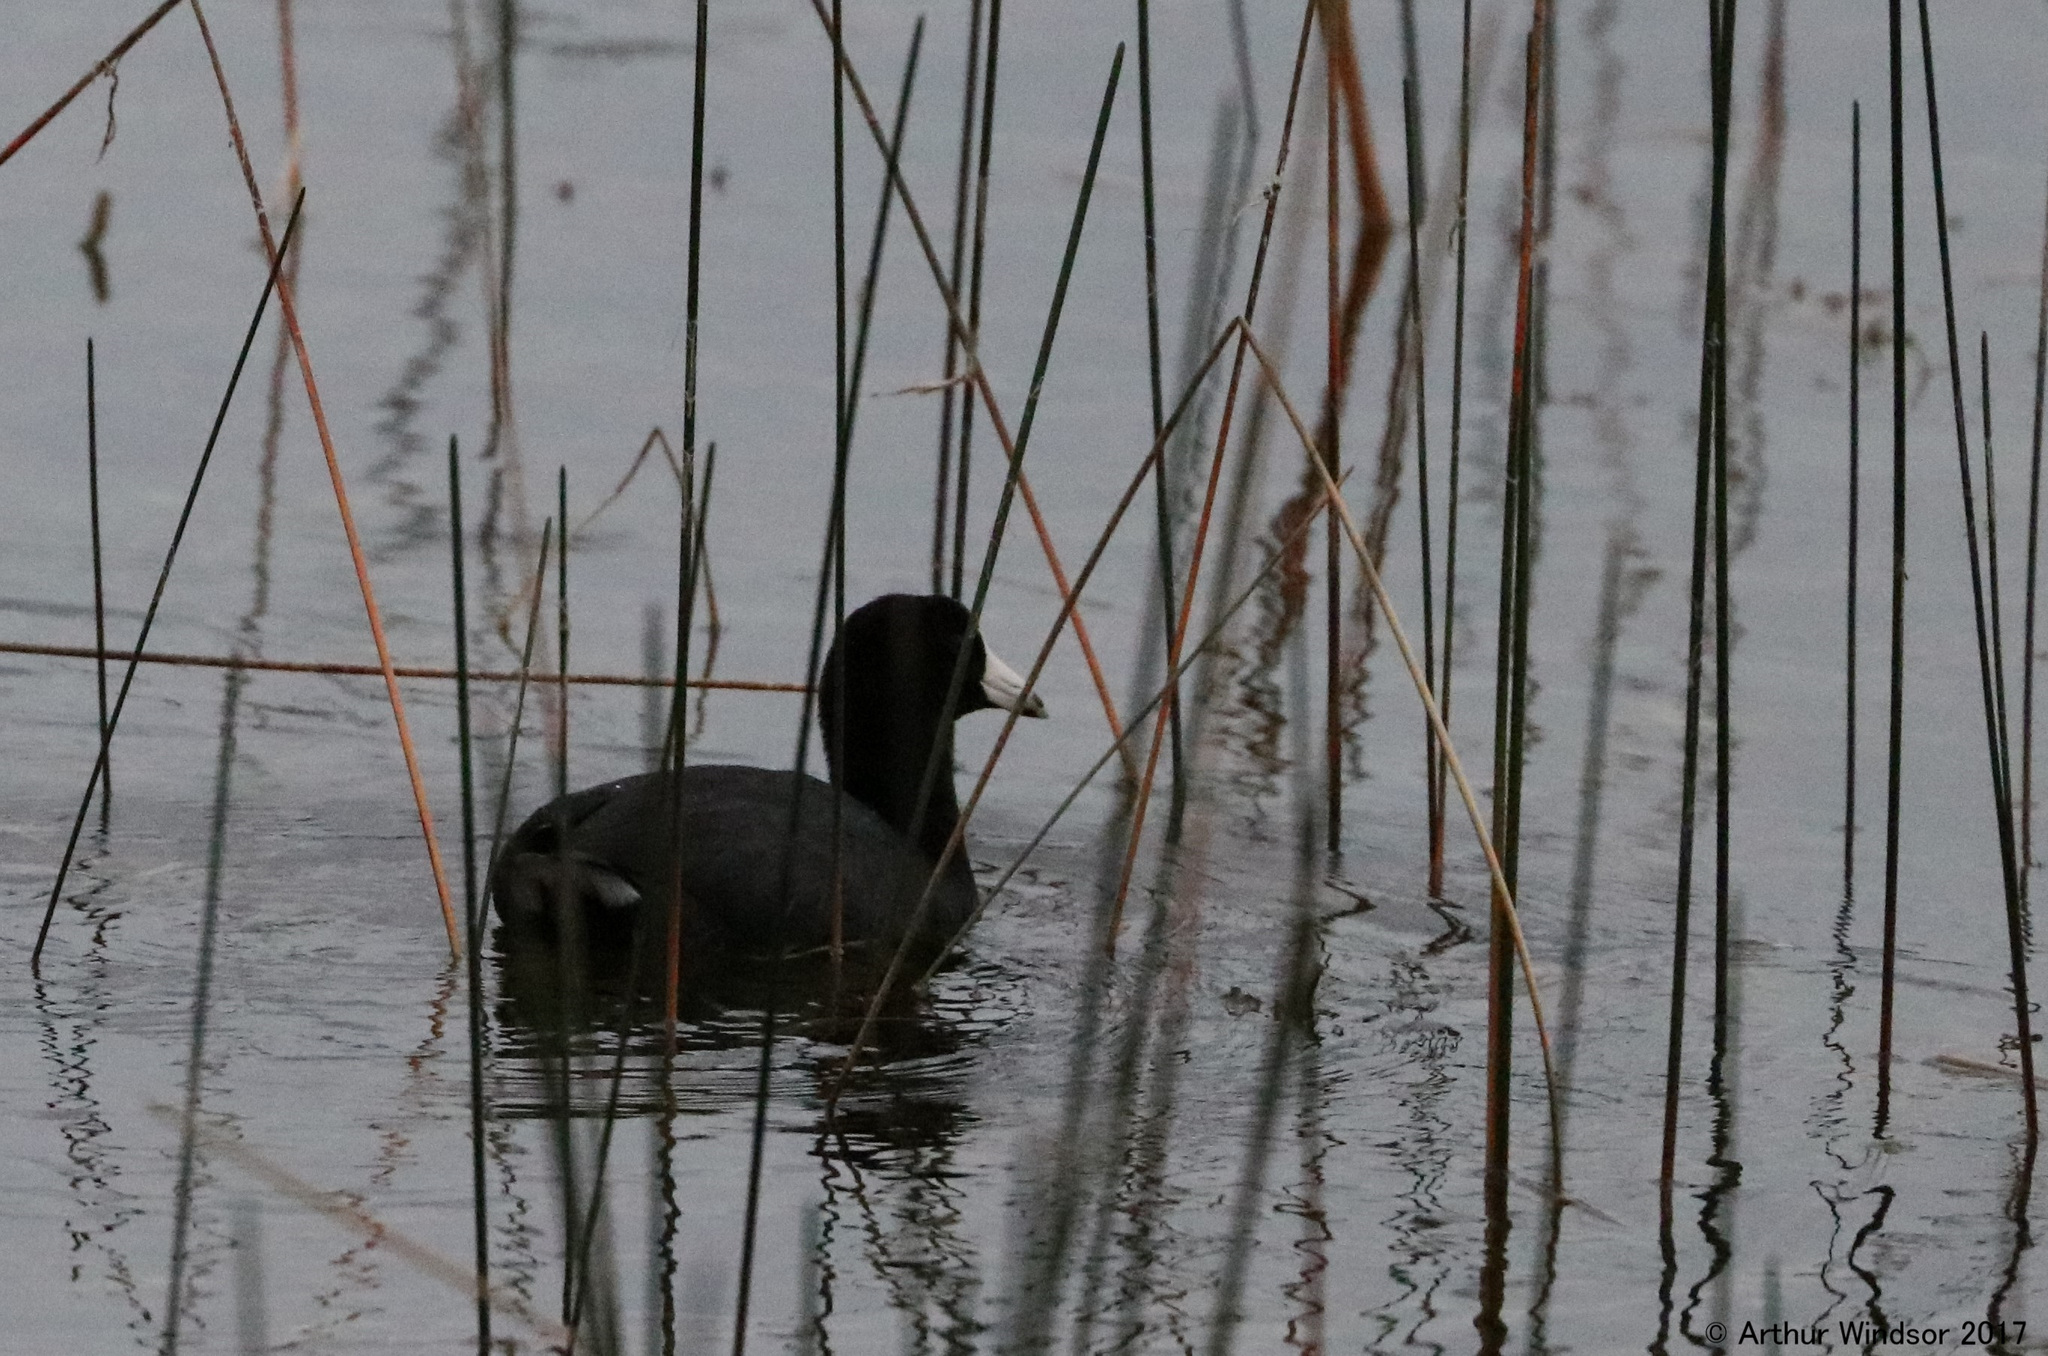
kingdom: Animalia
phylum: Chordata
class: Aves
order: Gruiformes
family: Rallidae
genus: Fulica
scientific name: Fulica americana
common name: American coot
